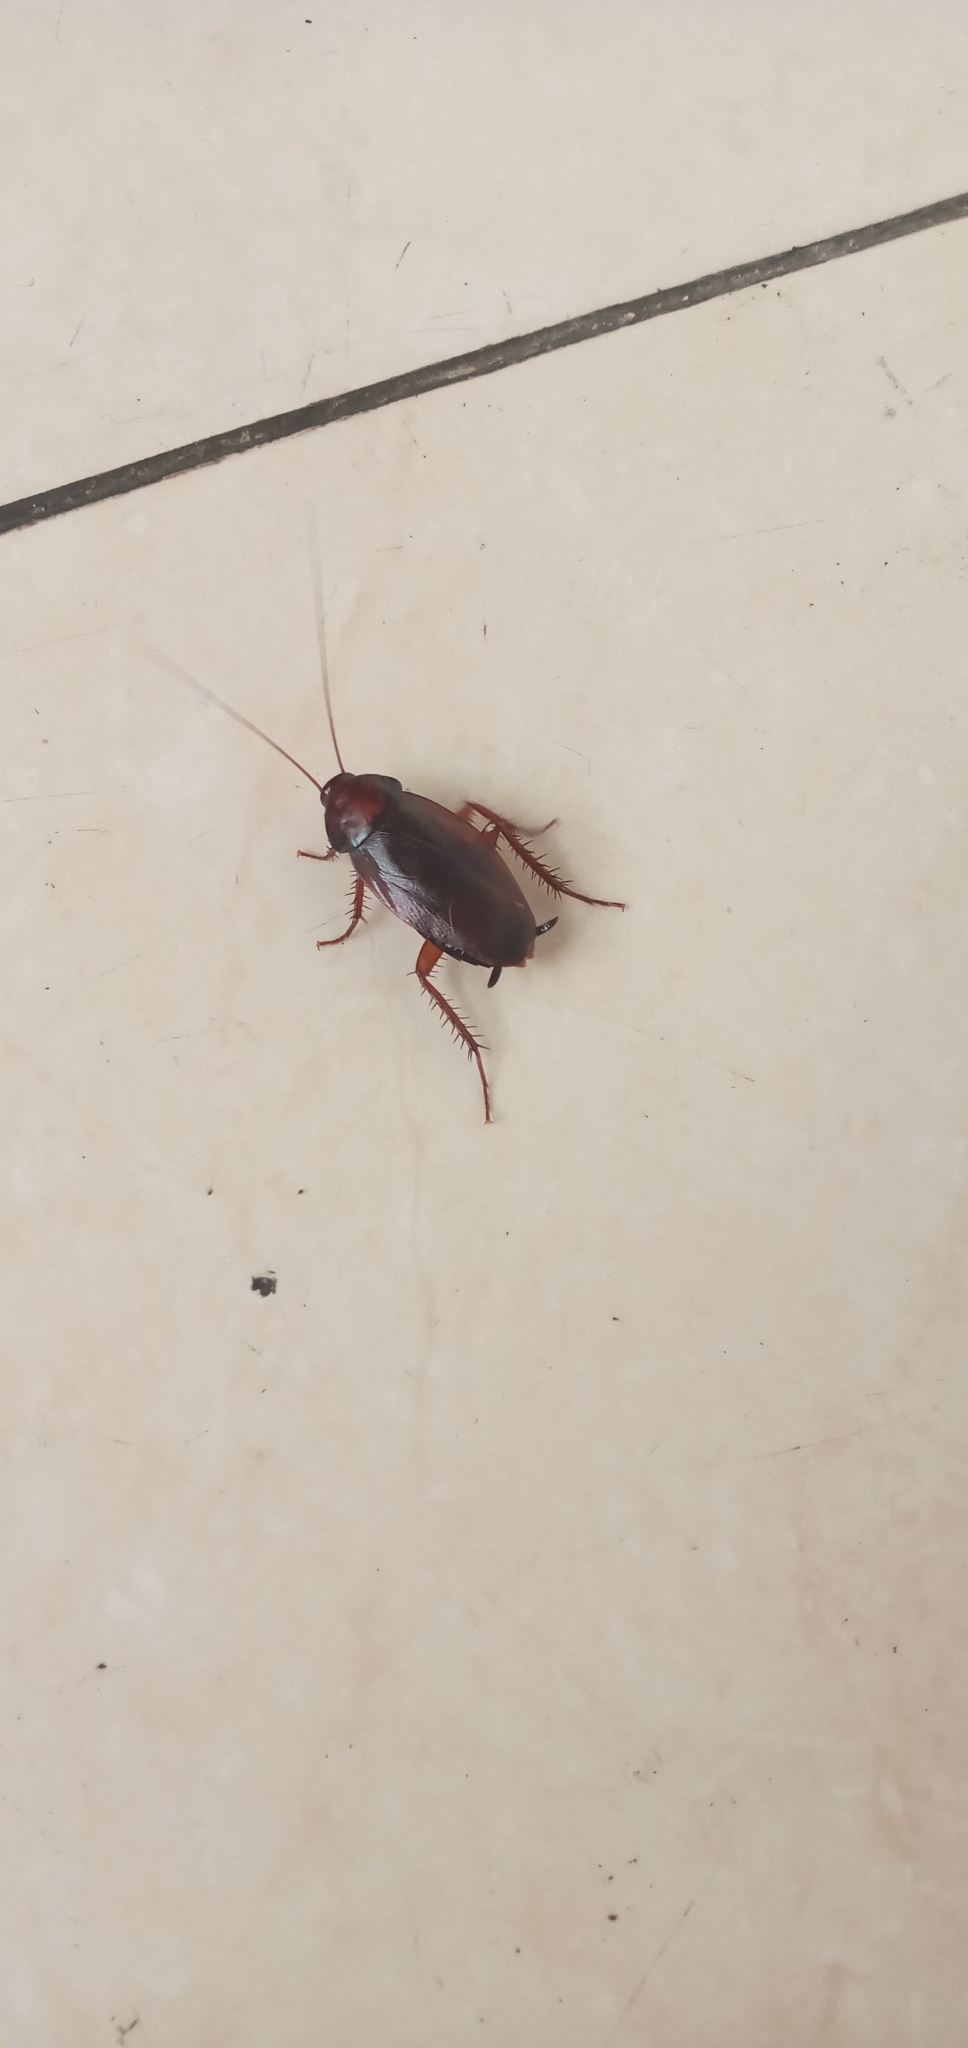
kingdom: Animalia
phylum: Arthropoda
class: Insecta
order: Blattodea
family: Blattidae
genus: Periplaneta
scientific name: Periplaneta brunnea
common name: Brown cockroach
